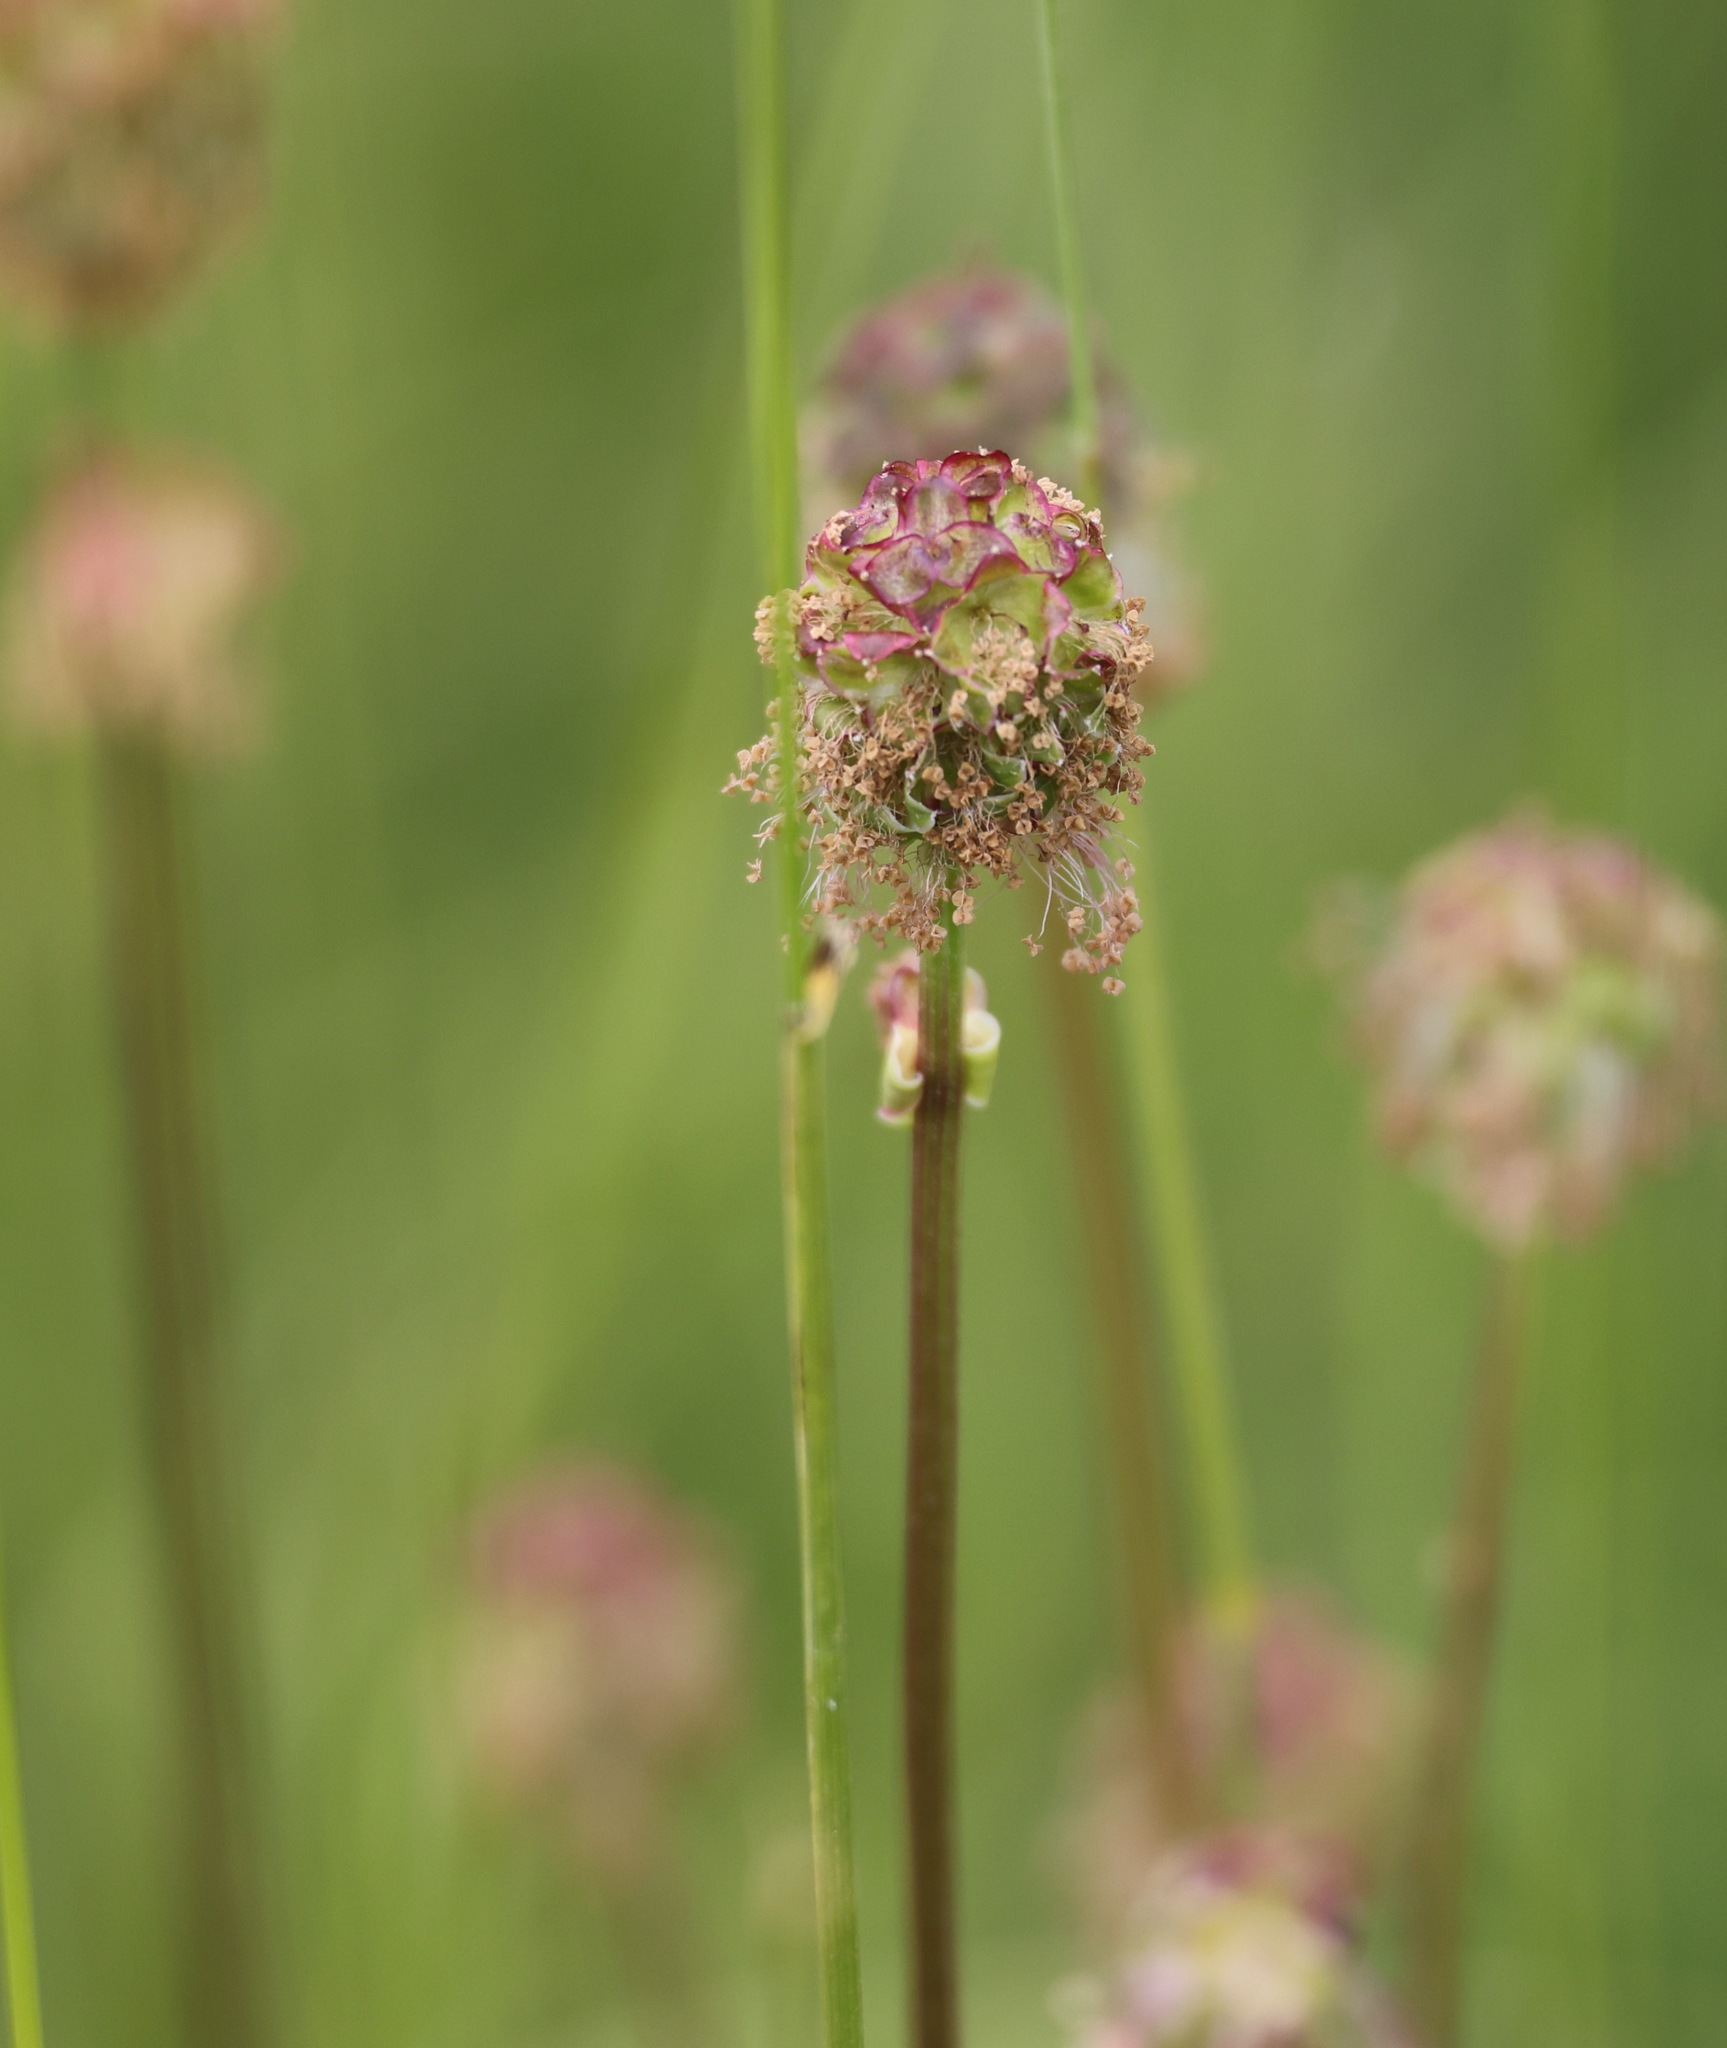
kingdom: Plantae
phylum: Tracheophyta
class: Magnoliopsida
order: Rosales
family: Rosaceae
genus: Poterium
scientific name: Poterium sanguisorba
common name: Salad burnet
